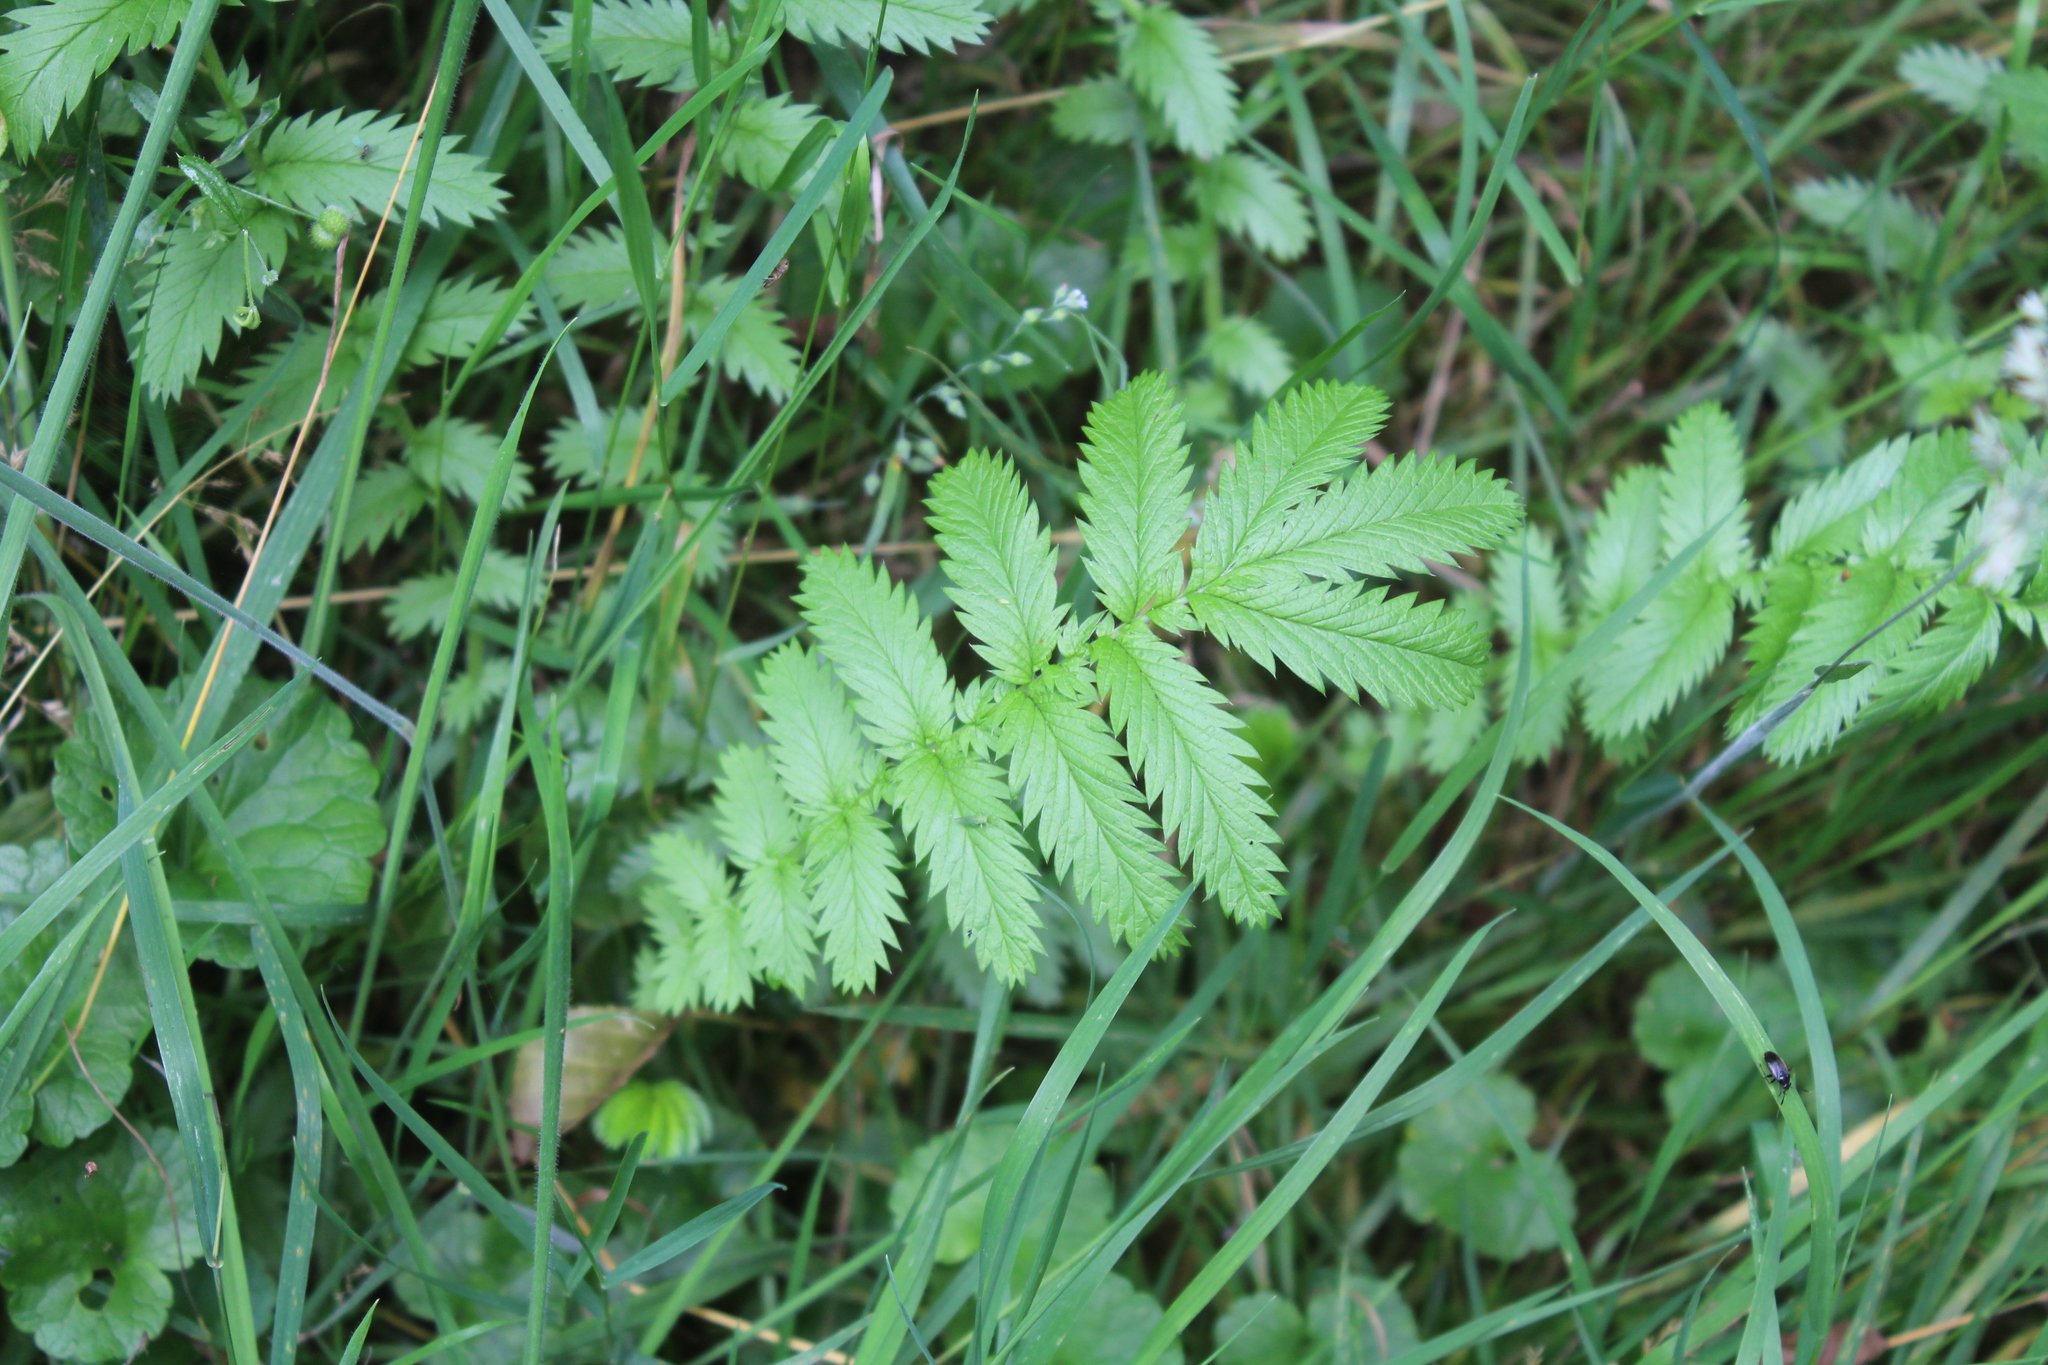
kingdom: Plantae
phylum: Tracheophyta
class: Magnoliopsida
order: Rosales
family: Rosaceae
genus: Argentina
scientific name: Argentina anserina
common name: Common silverweed
